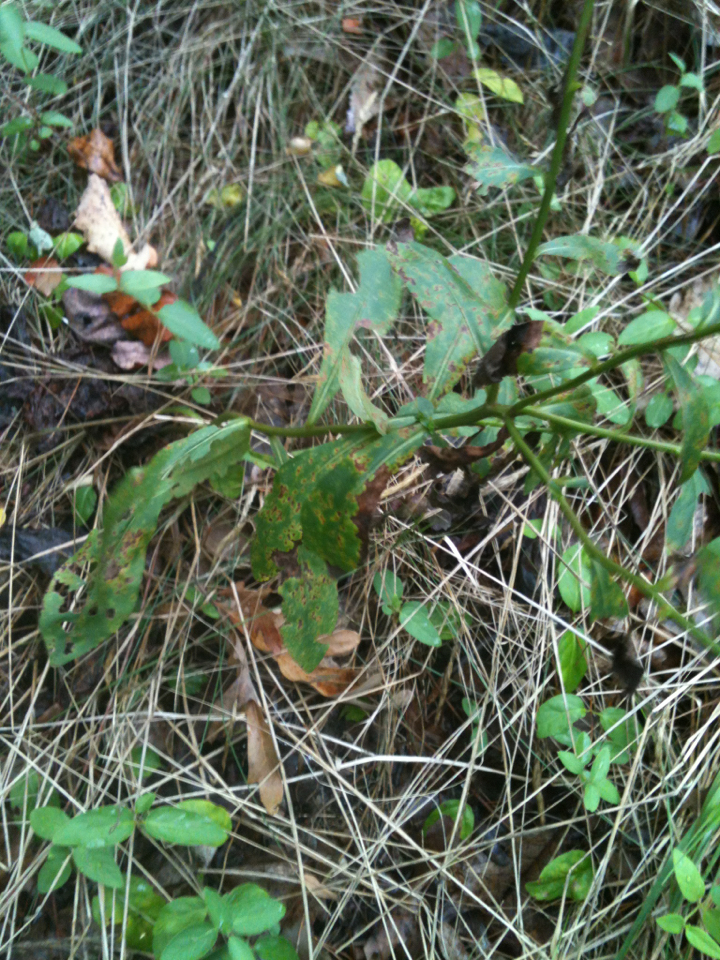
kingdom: Plantae
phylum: Tracheophyta
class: Magnoliopsida
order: Asterales
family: Asteraceae
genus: Solidago
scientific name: Solidago bicolor
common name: Silverrod
